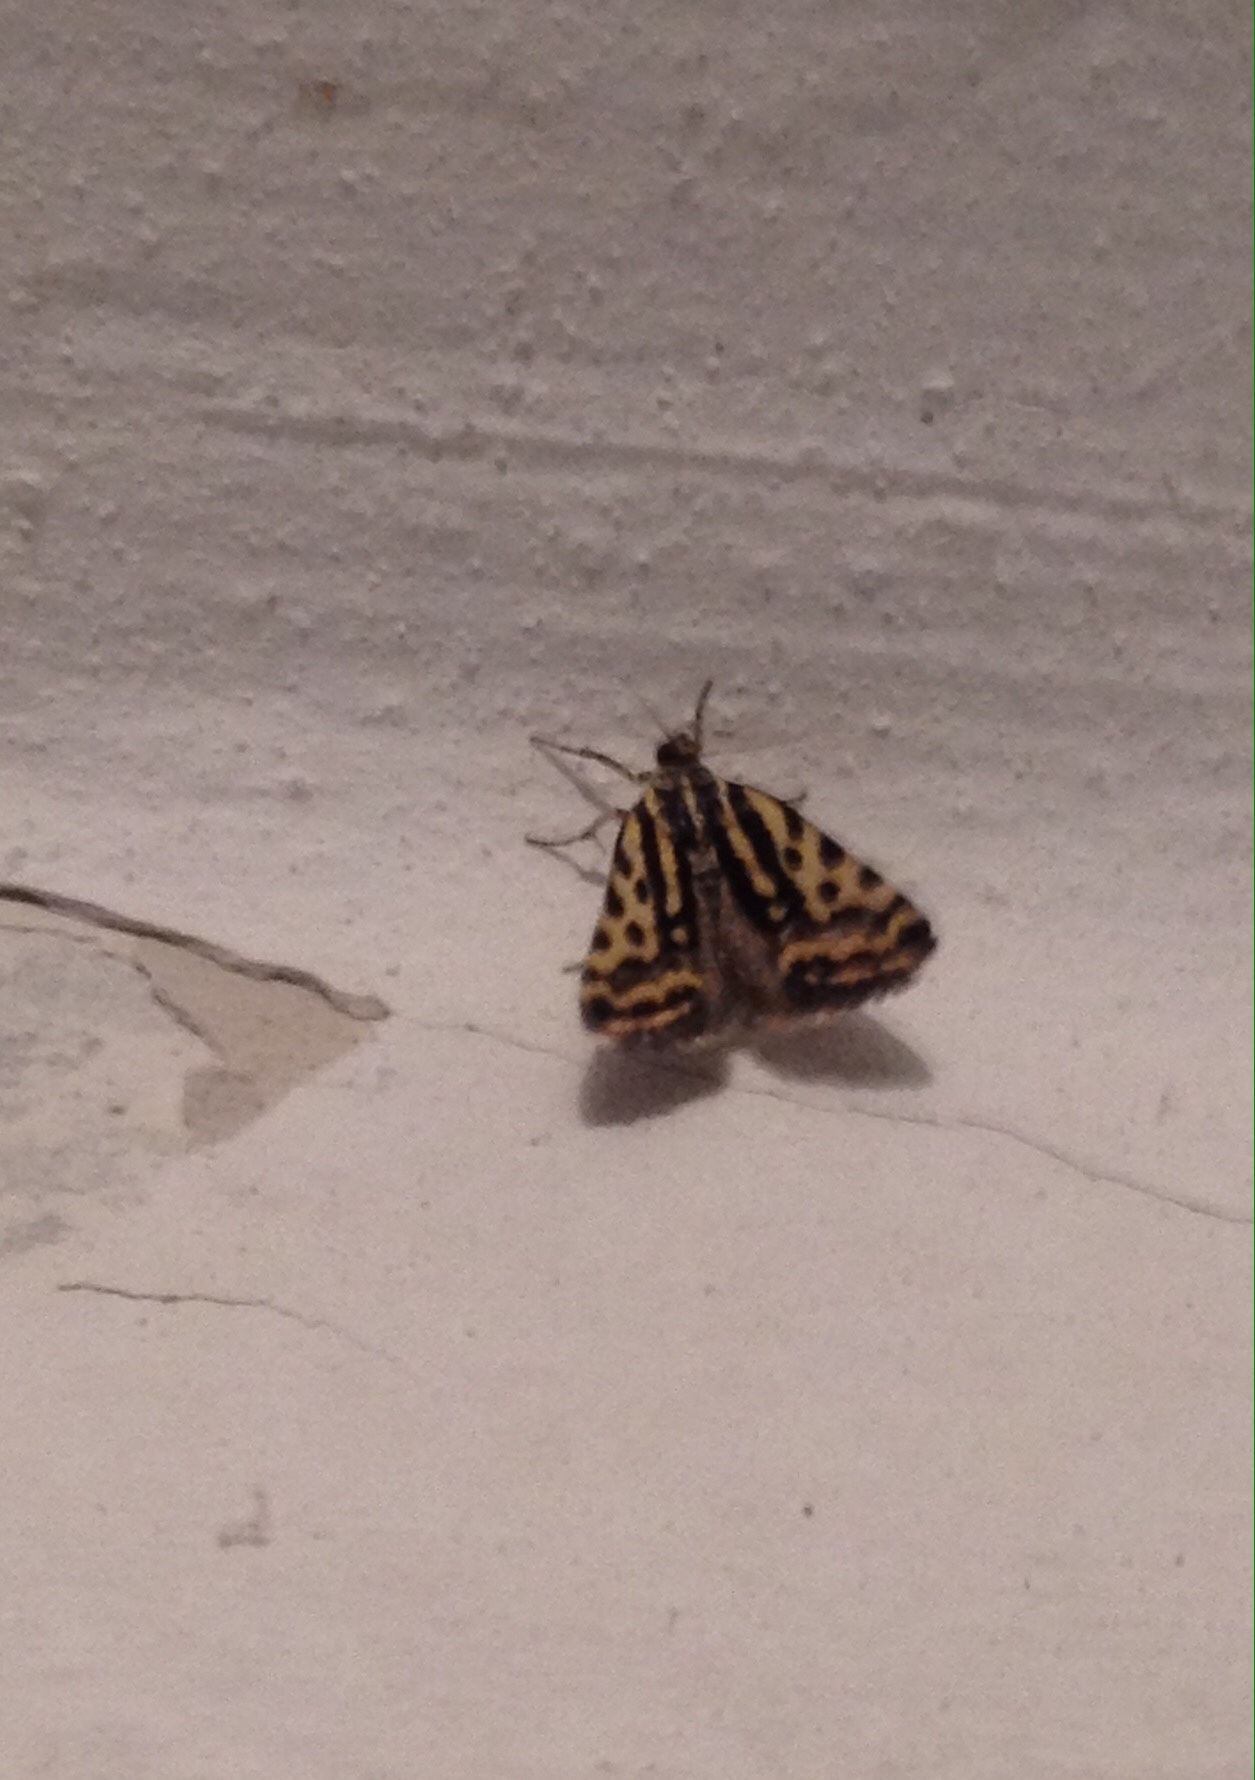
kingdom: Animalia
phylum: Arthropoda
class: Insecta
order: Lepidoptera
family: Noctuidae
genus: Acontia
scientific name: Acontia trabealis
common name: Spotted sulphur
